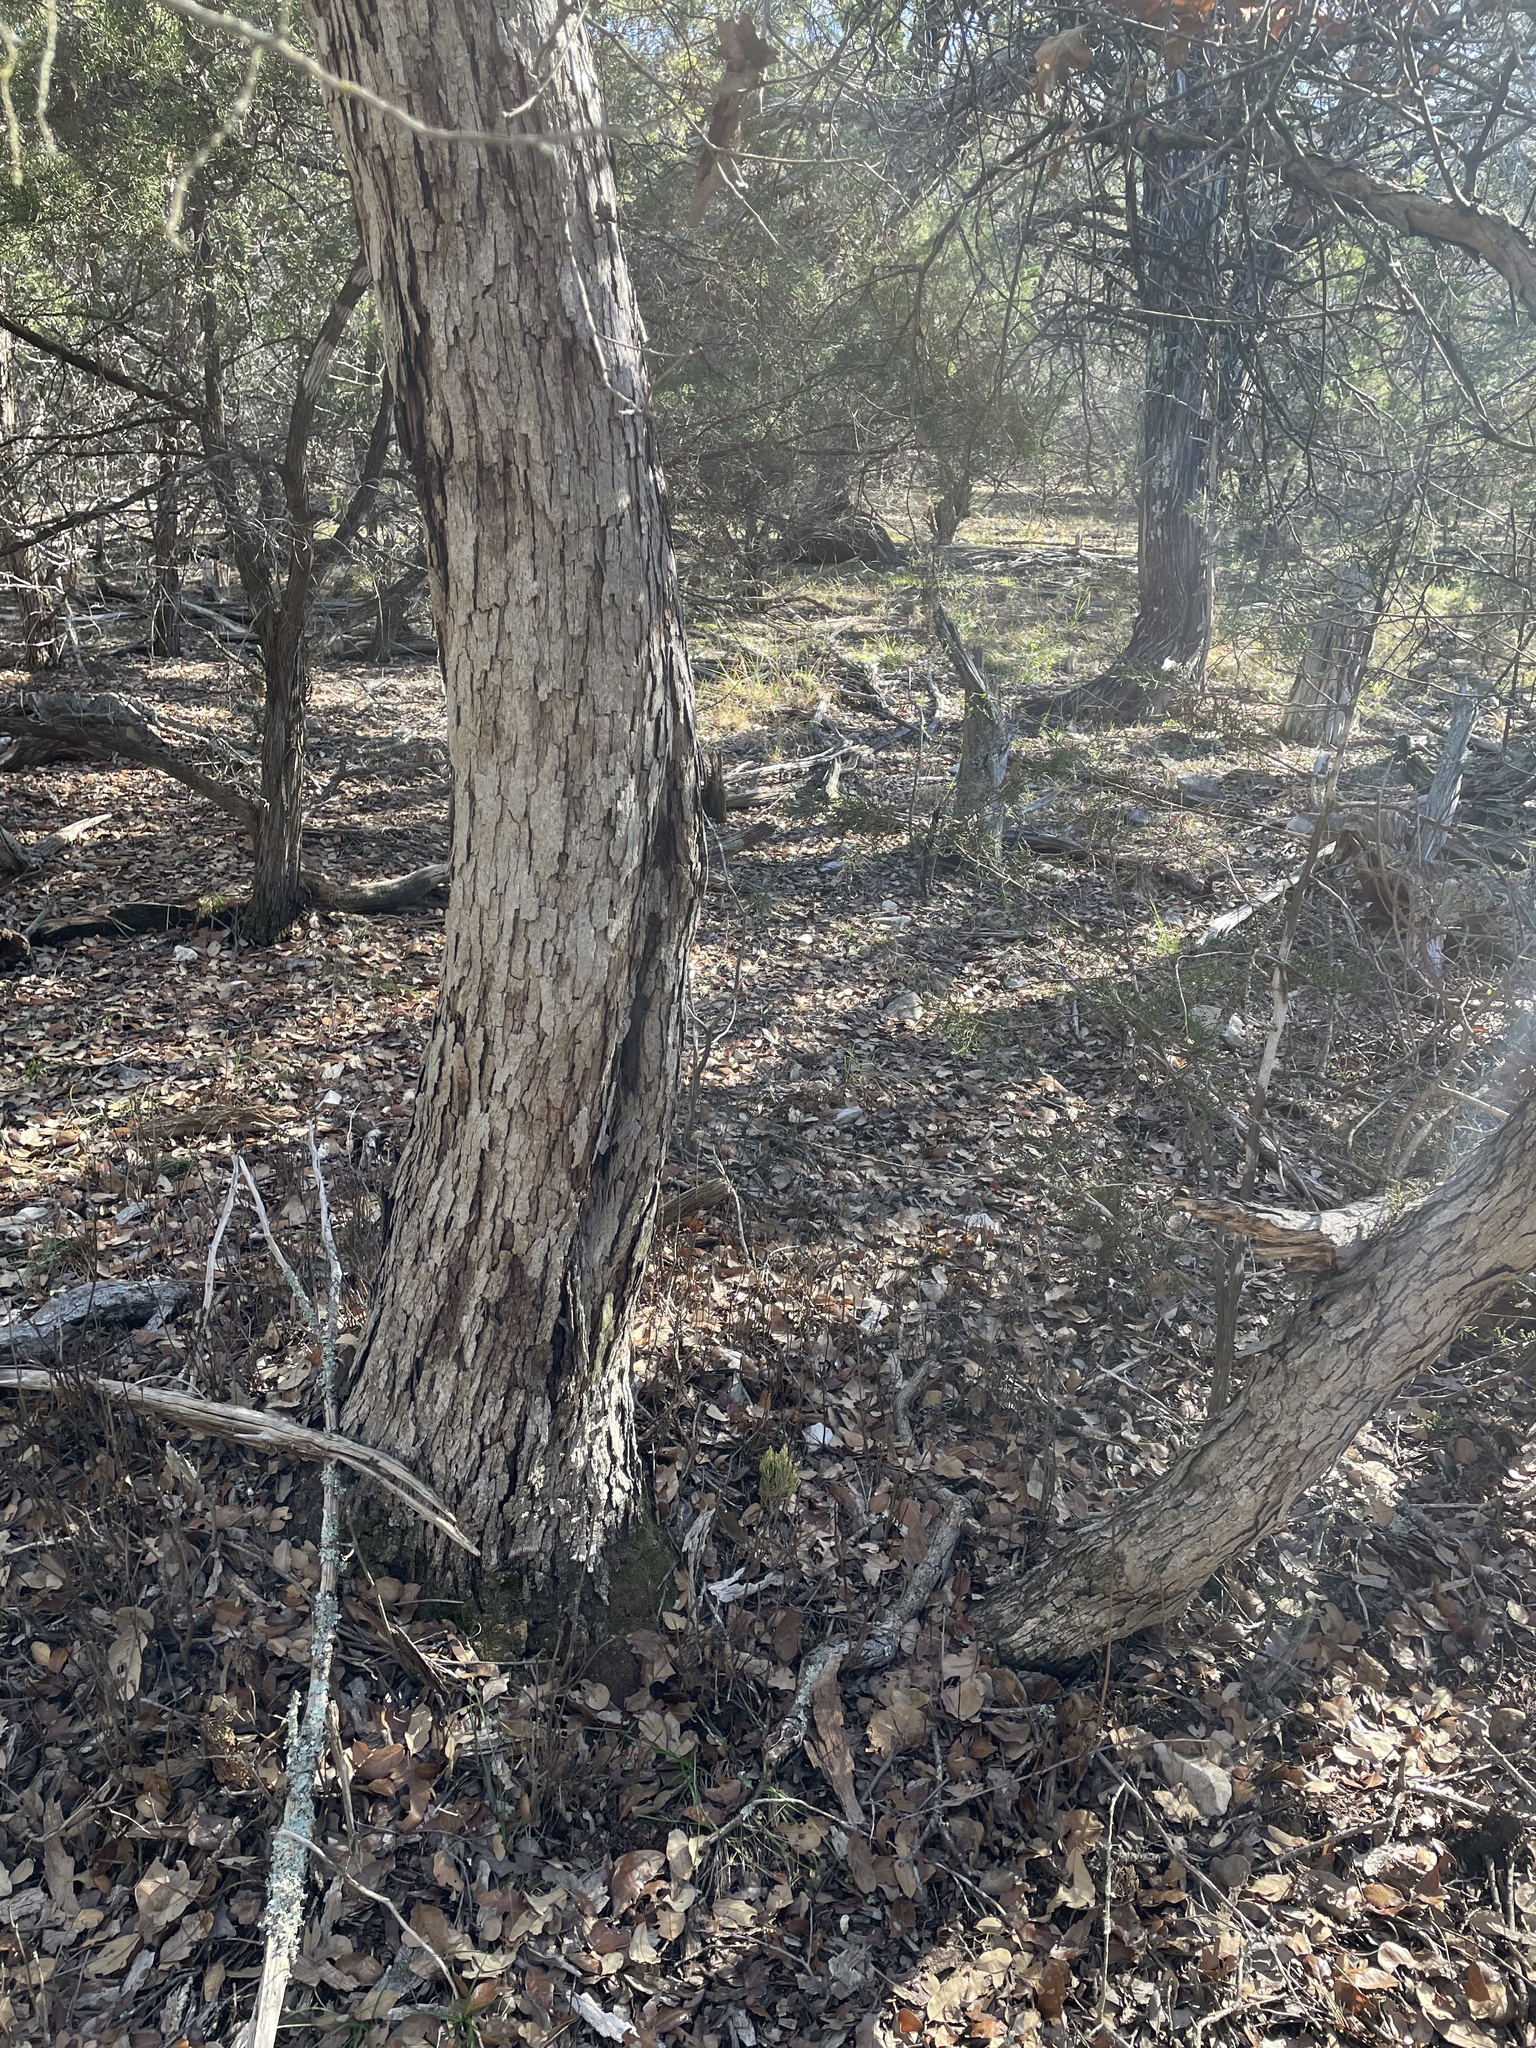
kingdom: Plantae
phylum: Tracheophyta
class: Magnoliopsida
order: Fagales
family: Fagaceae
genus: Quercus
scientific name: Quercus sinuata
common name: Durand oak
